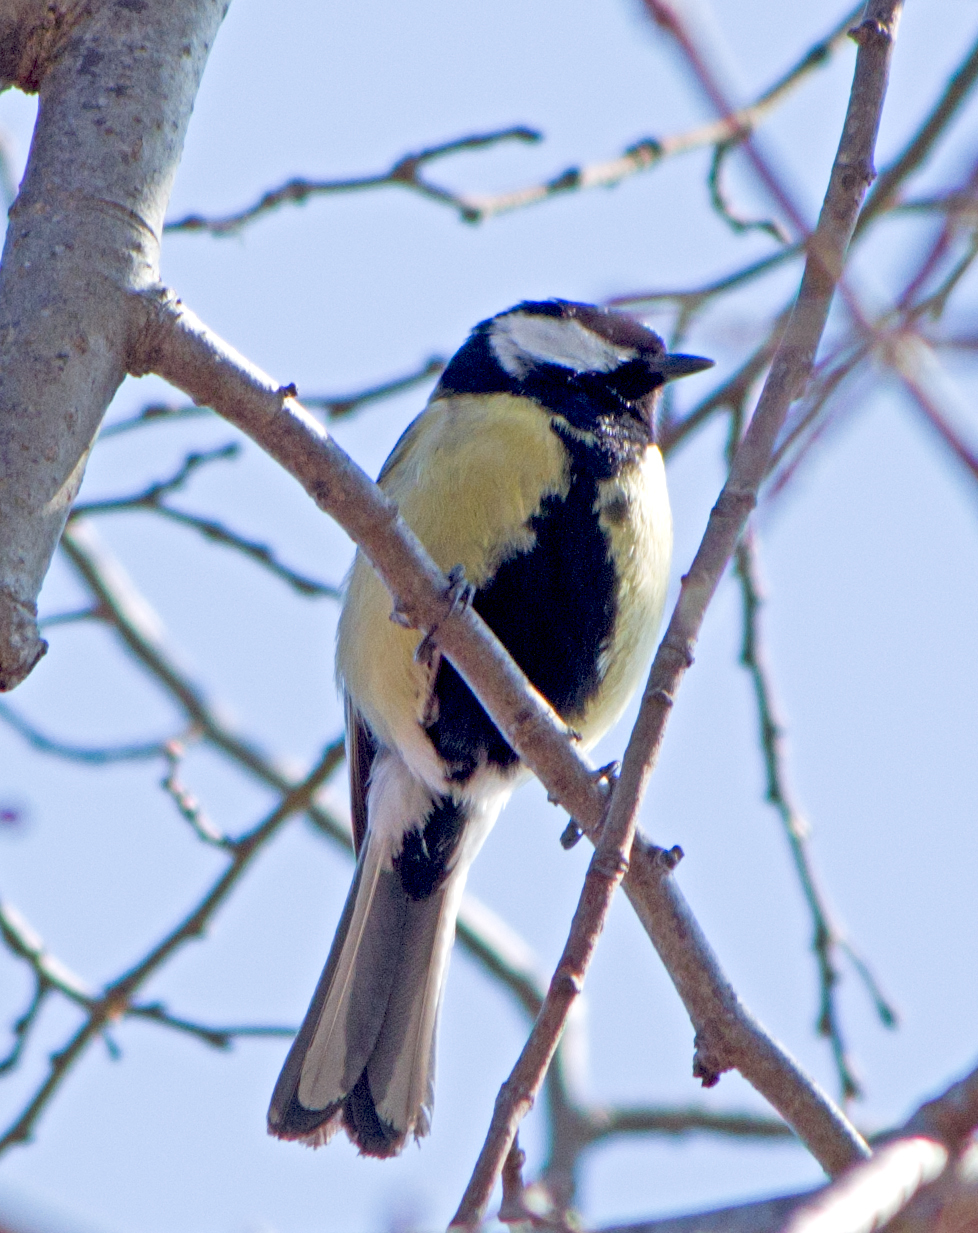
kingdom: Animalia
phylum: Chordata
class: Aves
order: Passeriformes
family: Paridae
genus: Parus
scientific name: Parus major
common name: Great tit
